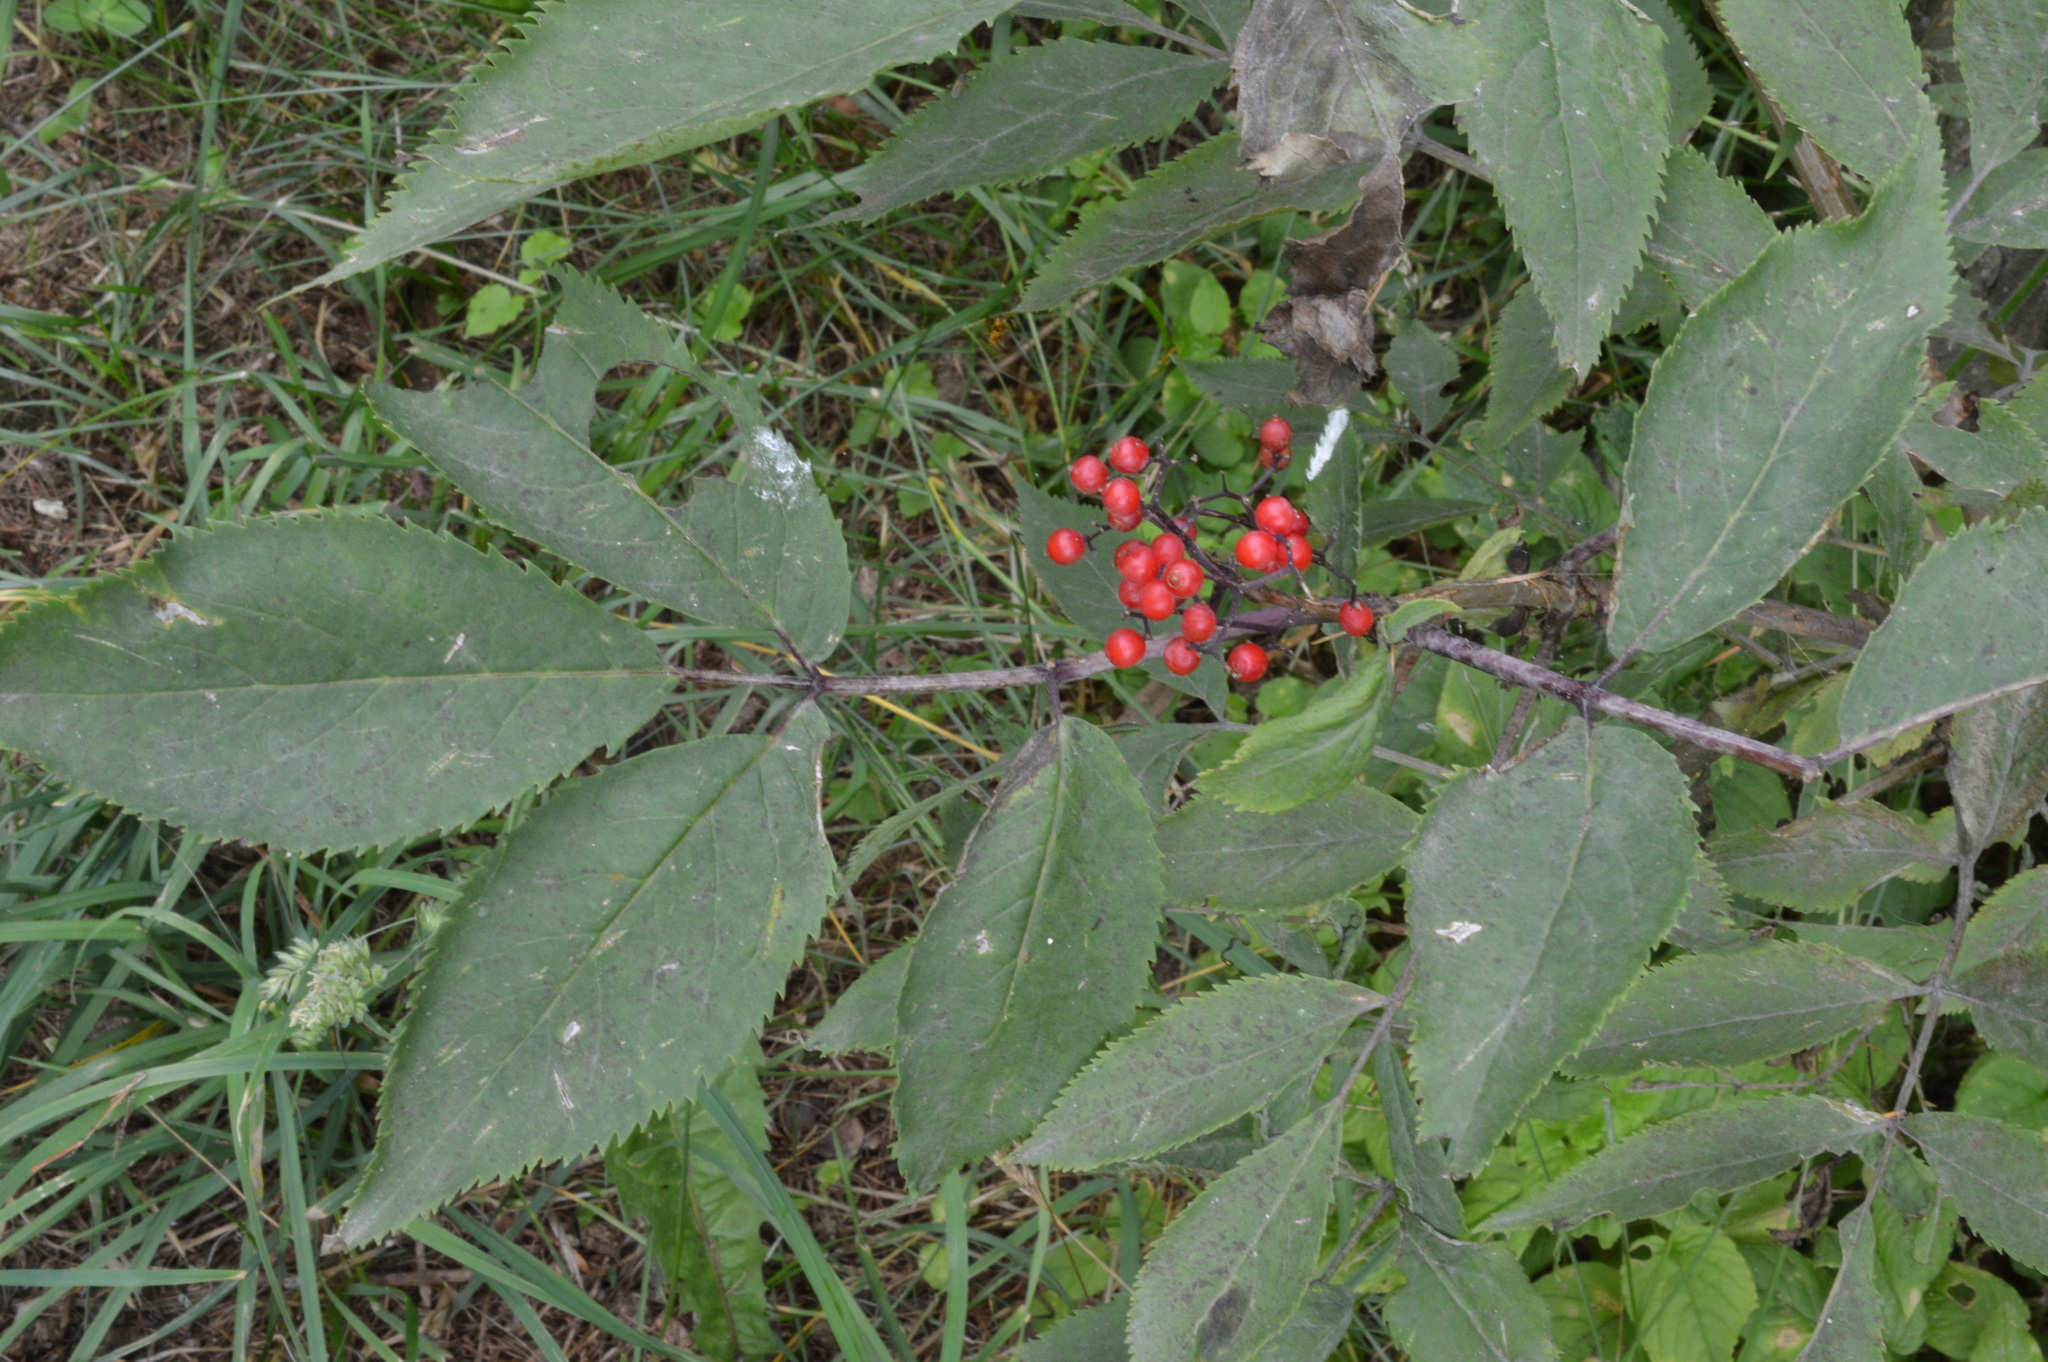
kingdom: Plantae
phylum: Tracheophyta
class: Magnoliopsida
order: Dipsacales
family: Viburnaceae
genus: Sambucus
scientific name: Sambucus racemosa
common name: Red-berried elder
